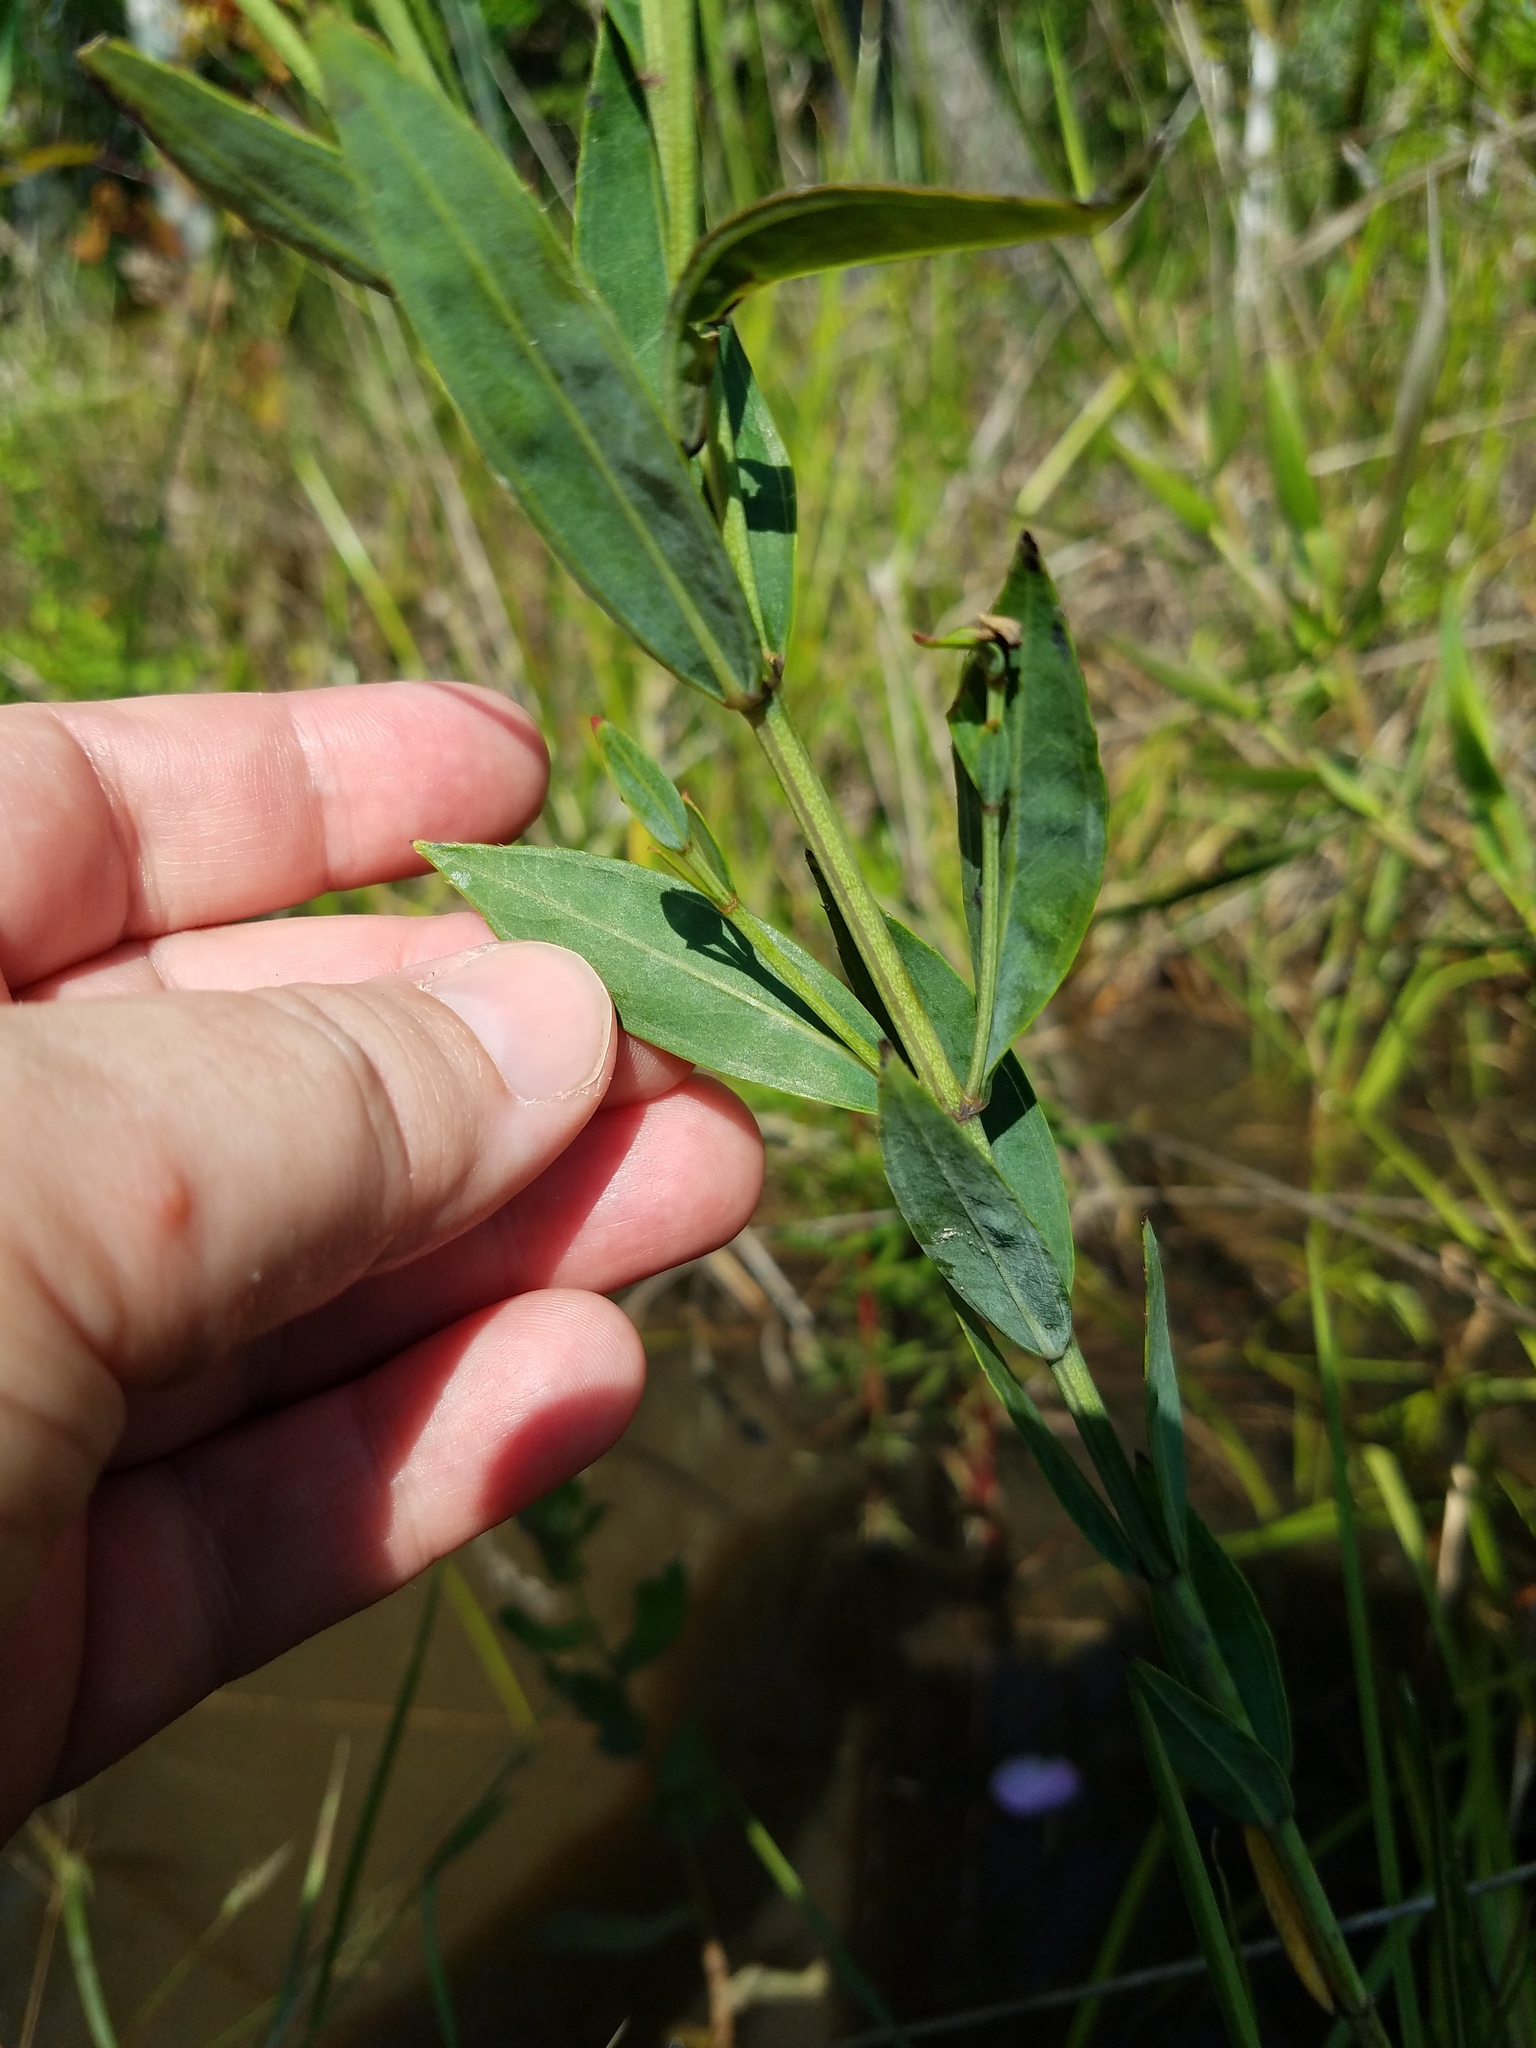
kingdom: Plantae
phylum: Tracheophyta
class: Magnoliopsida
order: Myrtales
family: Melastomataceae
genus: Rhexia
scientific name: Rhexia alifanus
